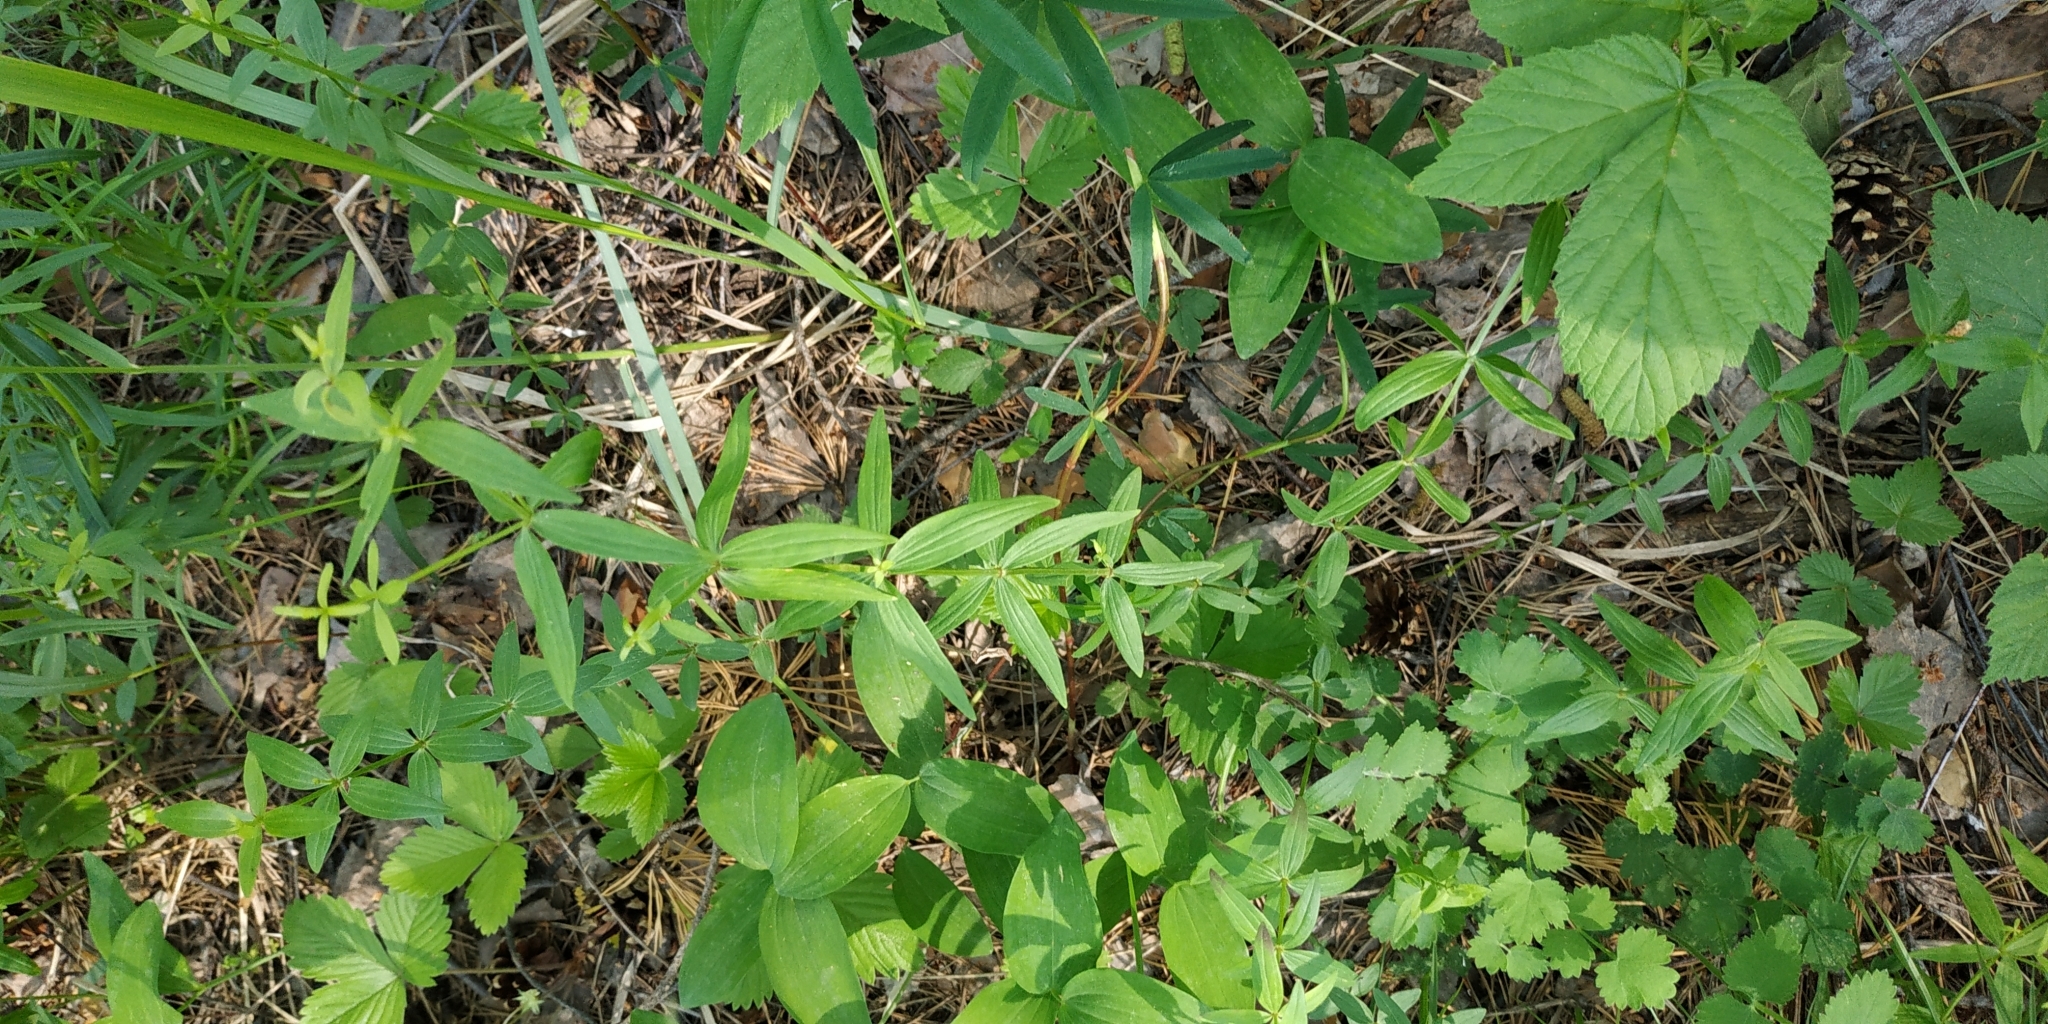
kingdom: Plantae
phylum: Tracheophyta
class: Magnoliopsida
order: Gentianales
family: Rubiaceae
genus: Galium
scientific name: Galium boreale
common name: Northern bedstraw
